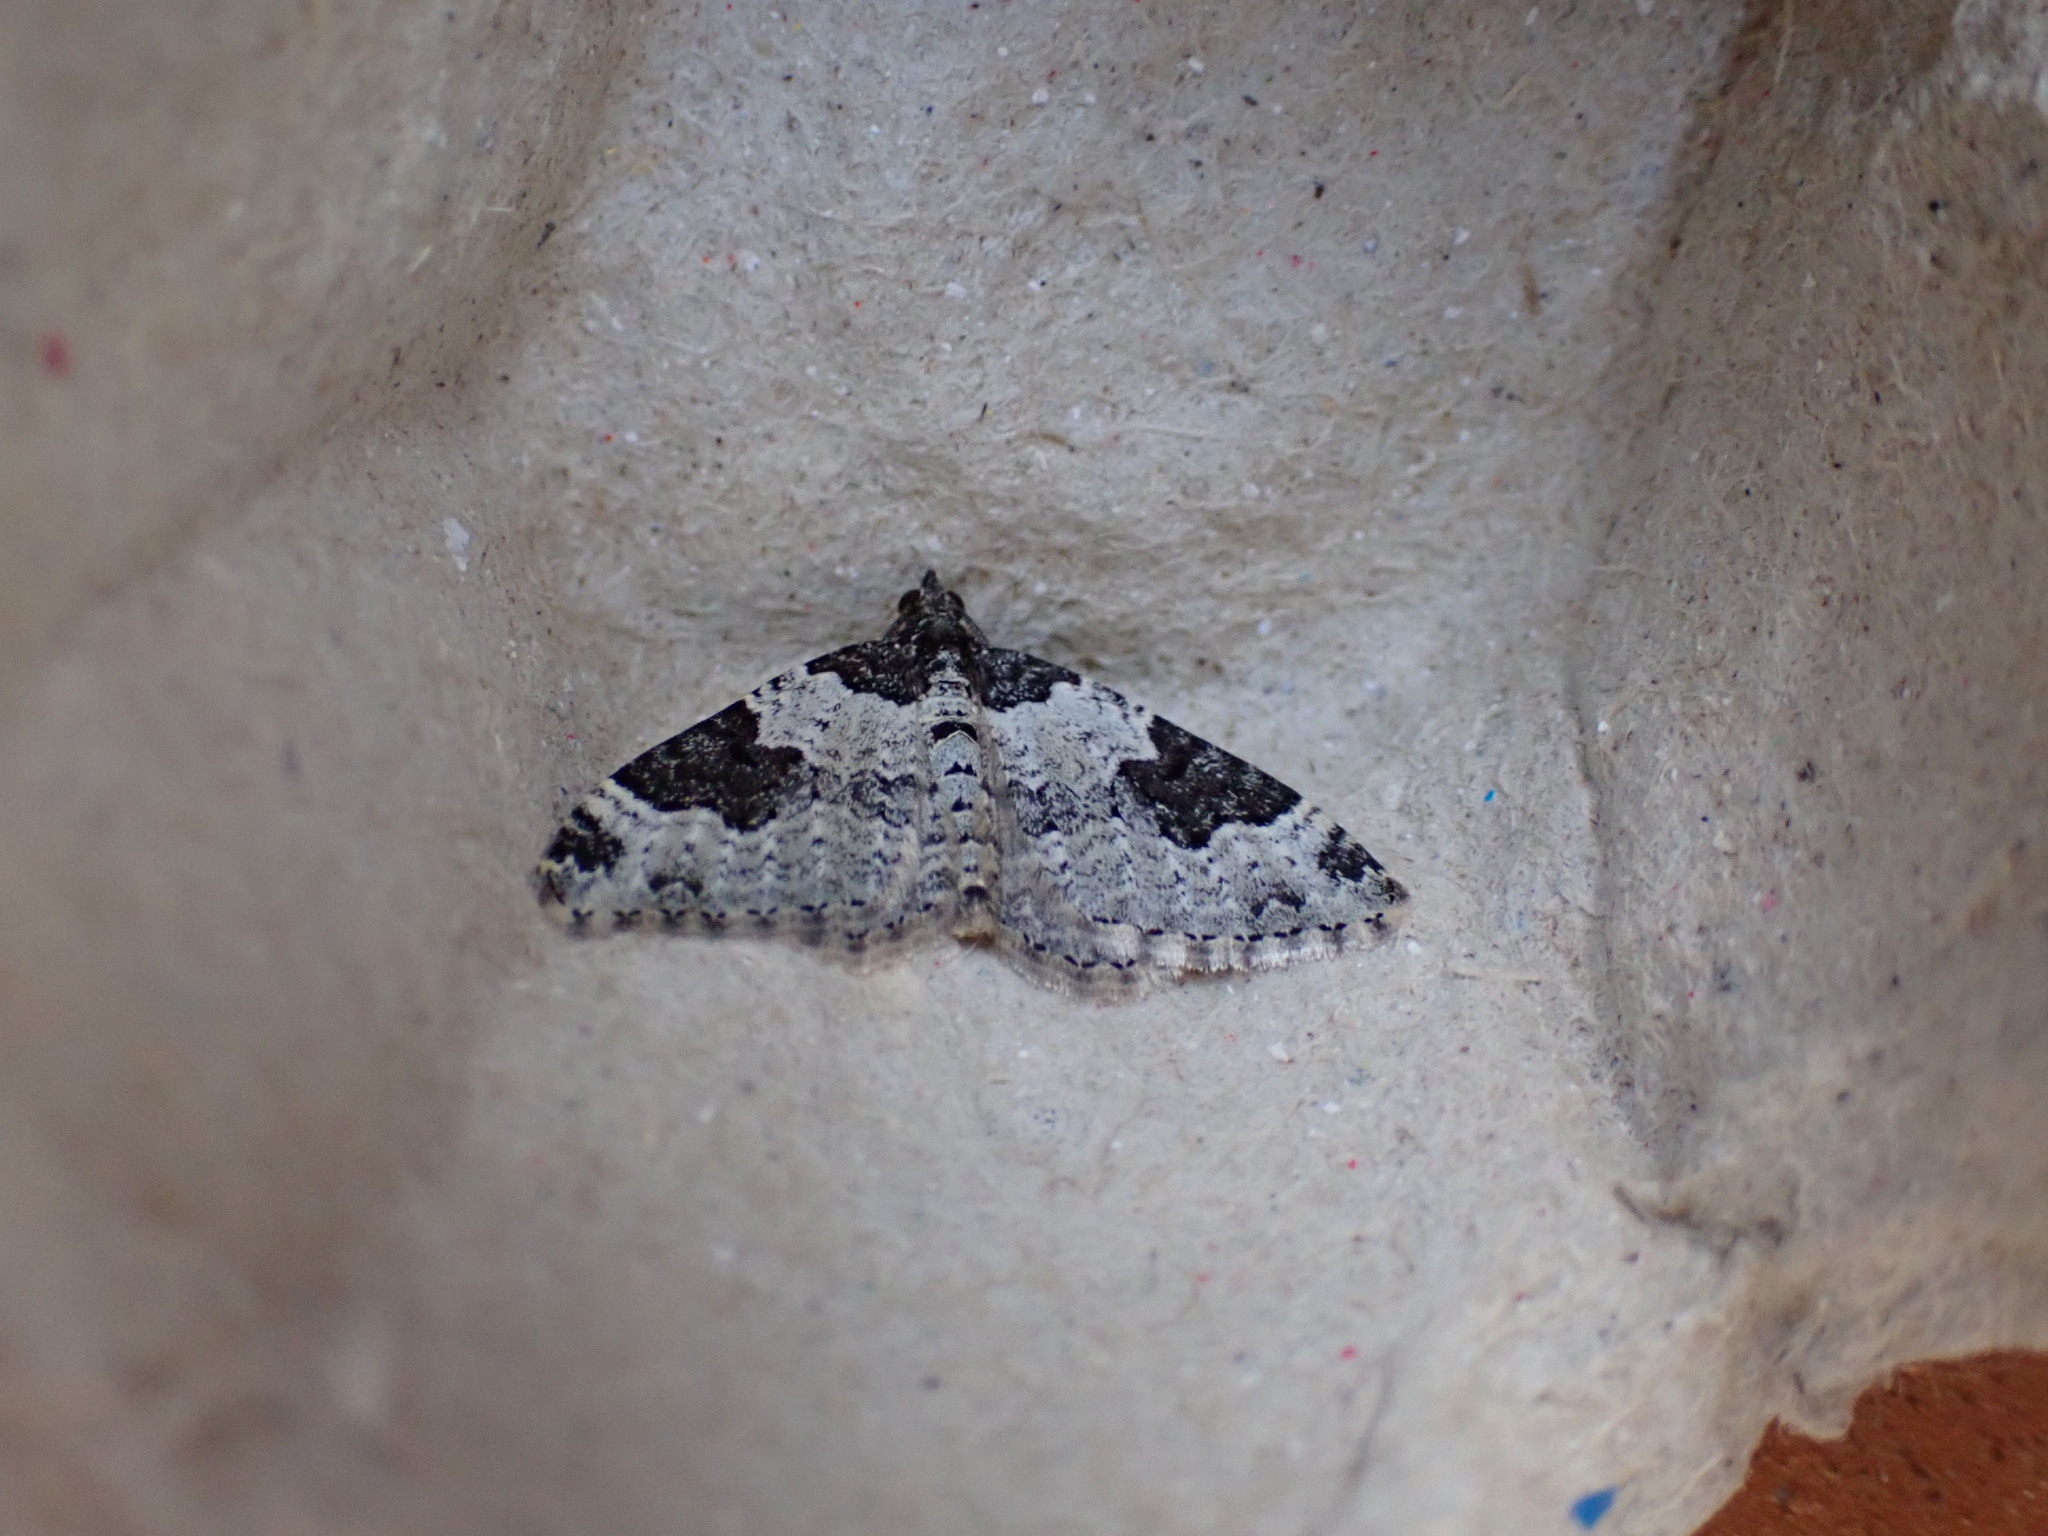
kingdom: Animalia
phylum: Arthropoda
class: Insecta
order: Lepidoptera
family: Geometridae
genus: Xanthorhoe
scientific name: Xanthorhoe fluctuata
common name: Garden carpet
